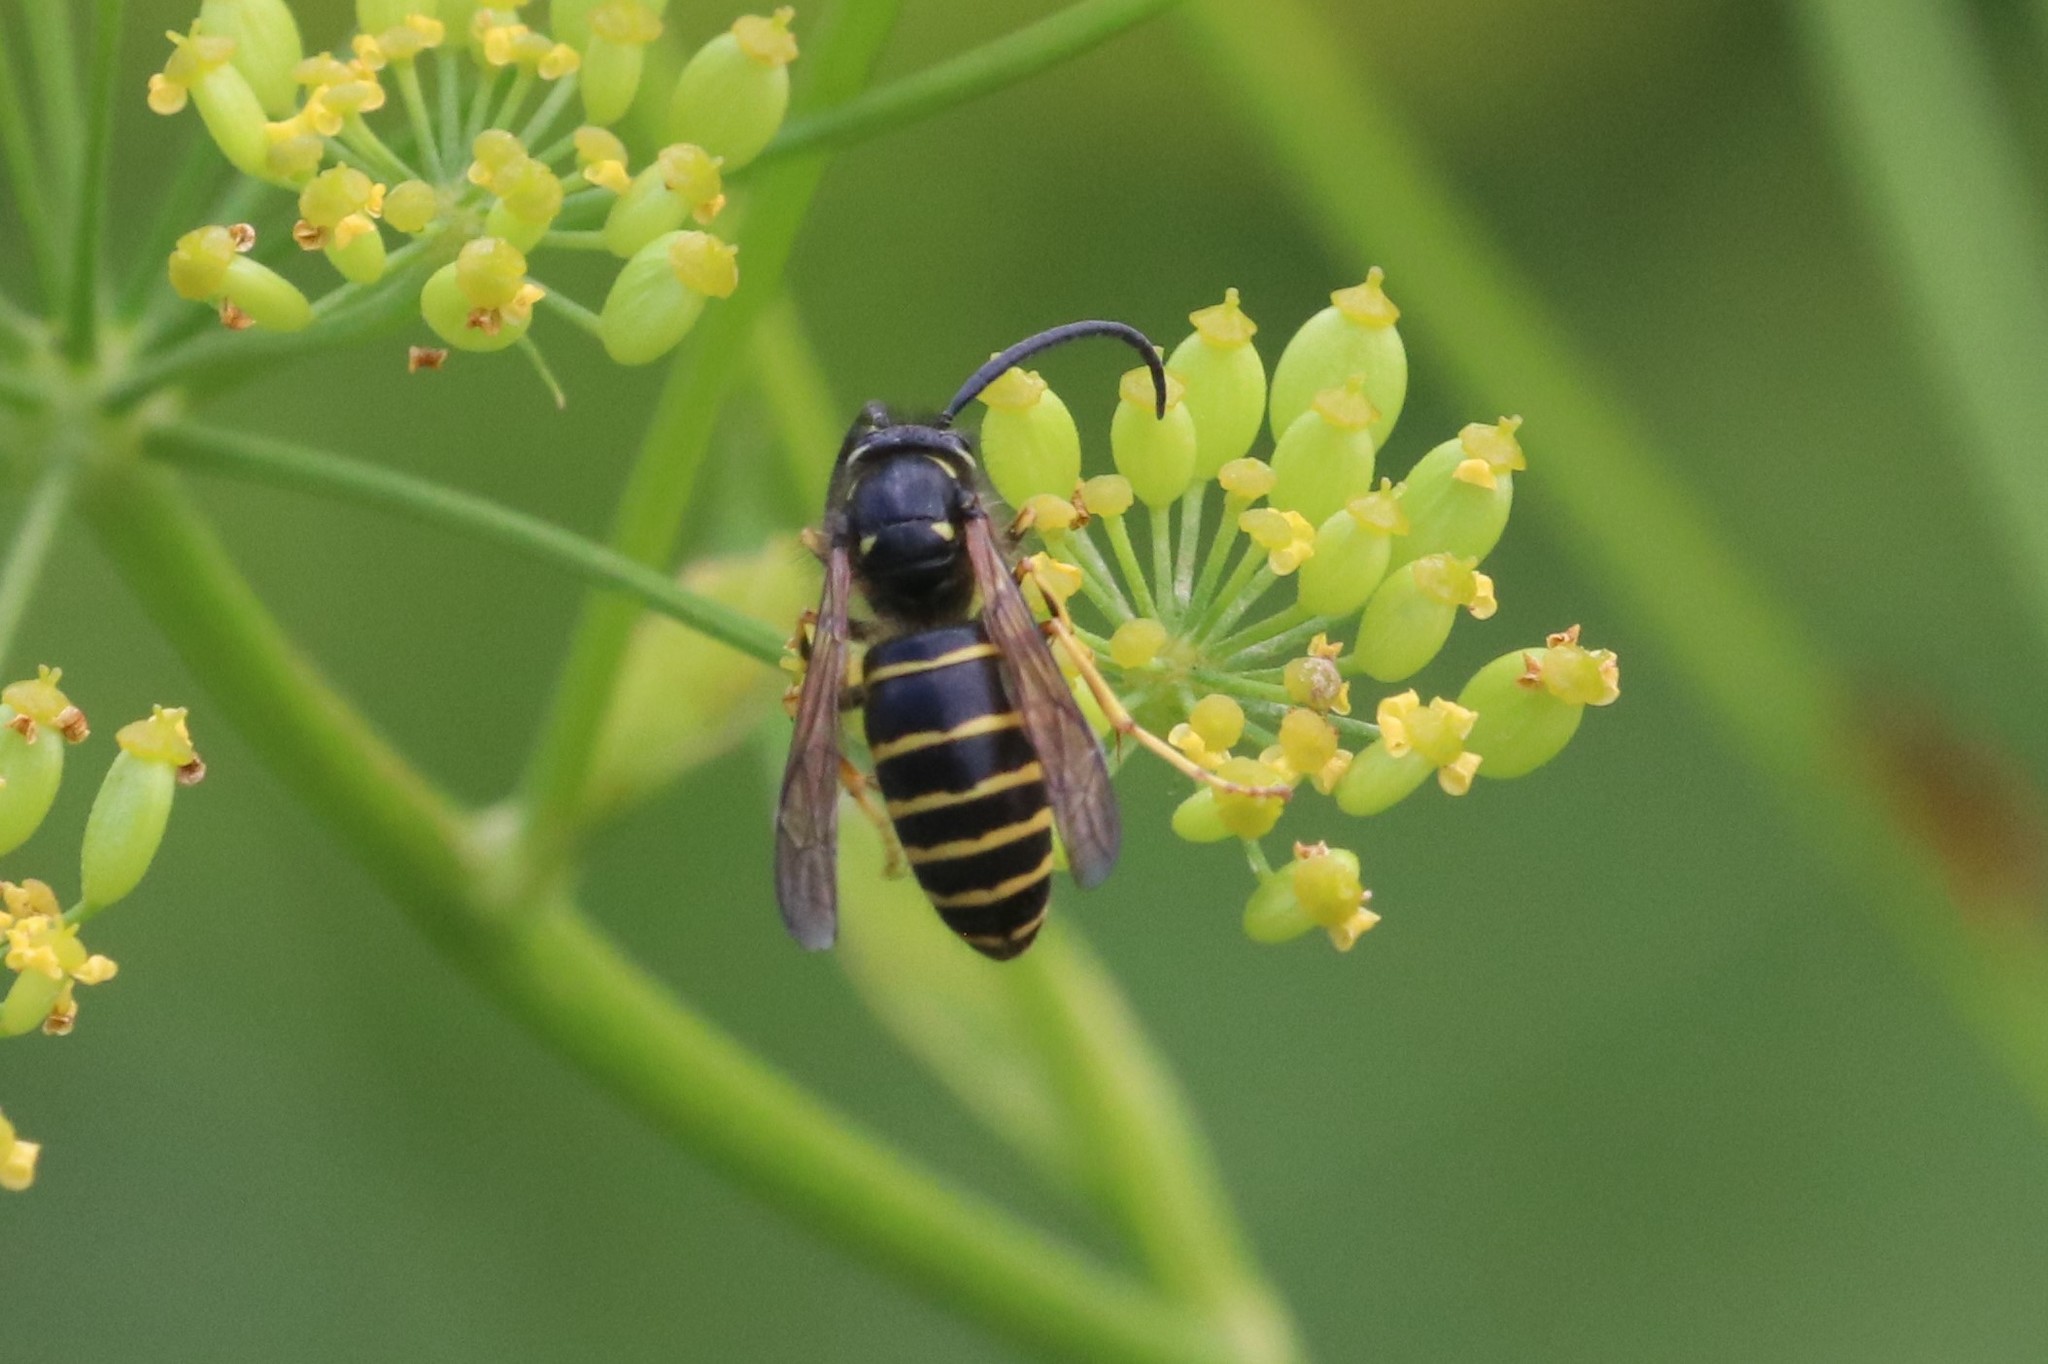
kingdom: Animalia
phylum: Arthropoda
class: Insecta
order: Hymenoptera
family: Vespidae
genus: Dolichovespula
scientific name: Dolichovespula norvegicoides
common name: Northern aerial yellowjacket
